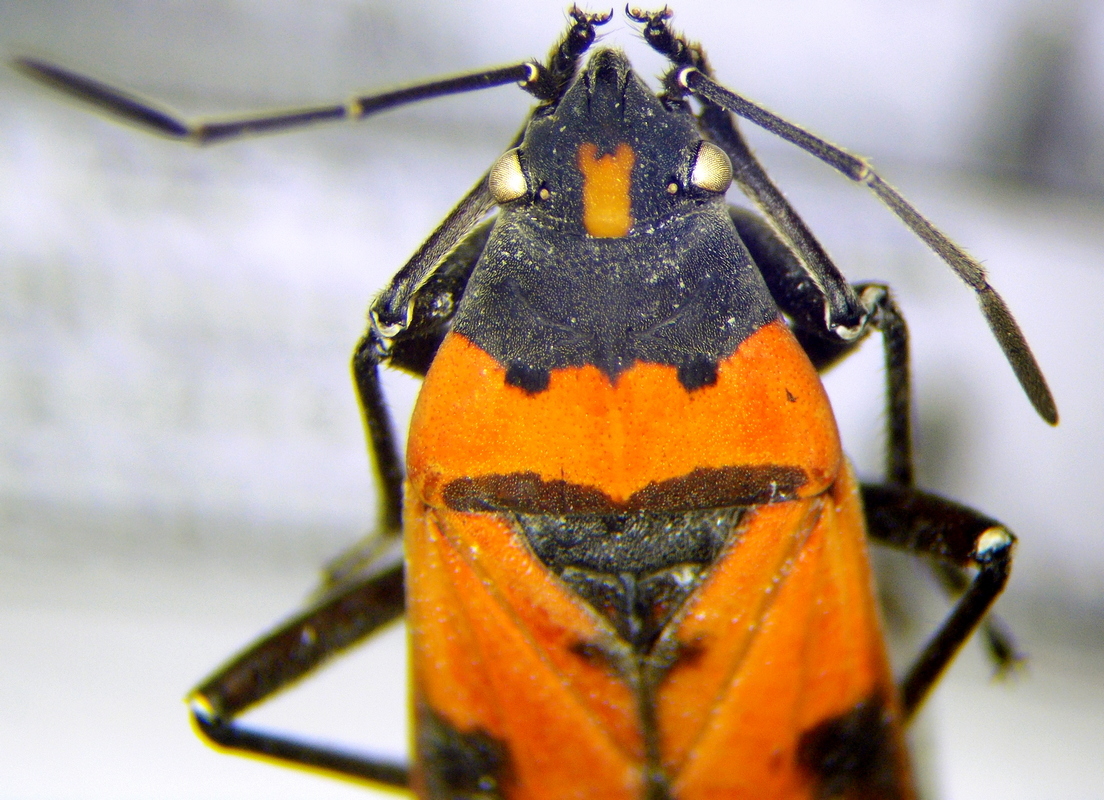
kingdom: Animalia
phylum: Arthropoda
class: Insecta
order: Hemiptera
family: Lygaeidae
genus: Lygaeus
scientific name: Lygaeus reclivatus
